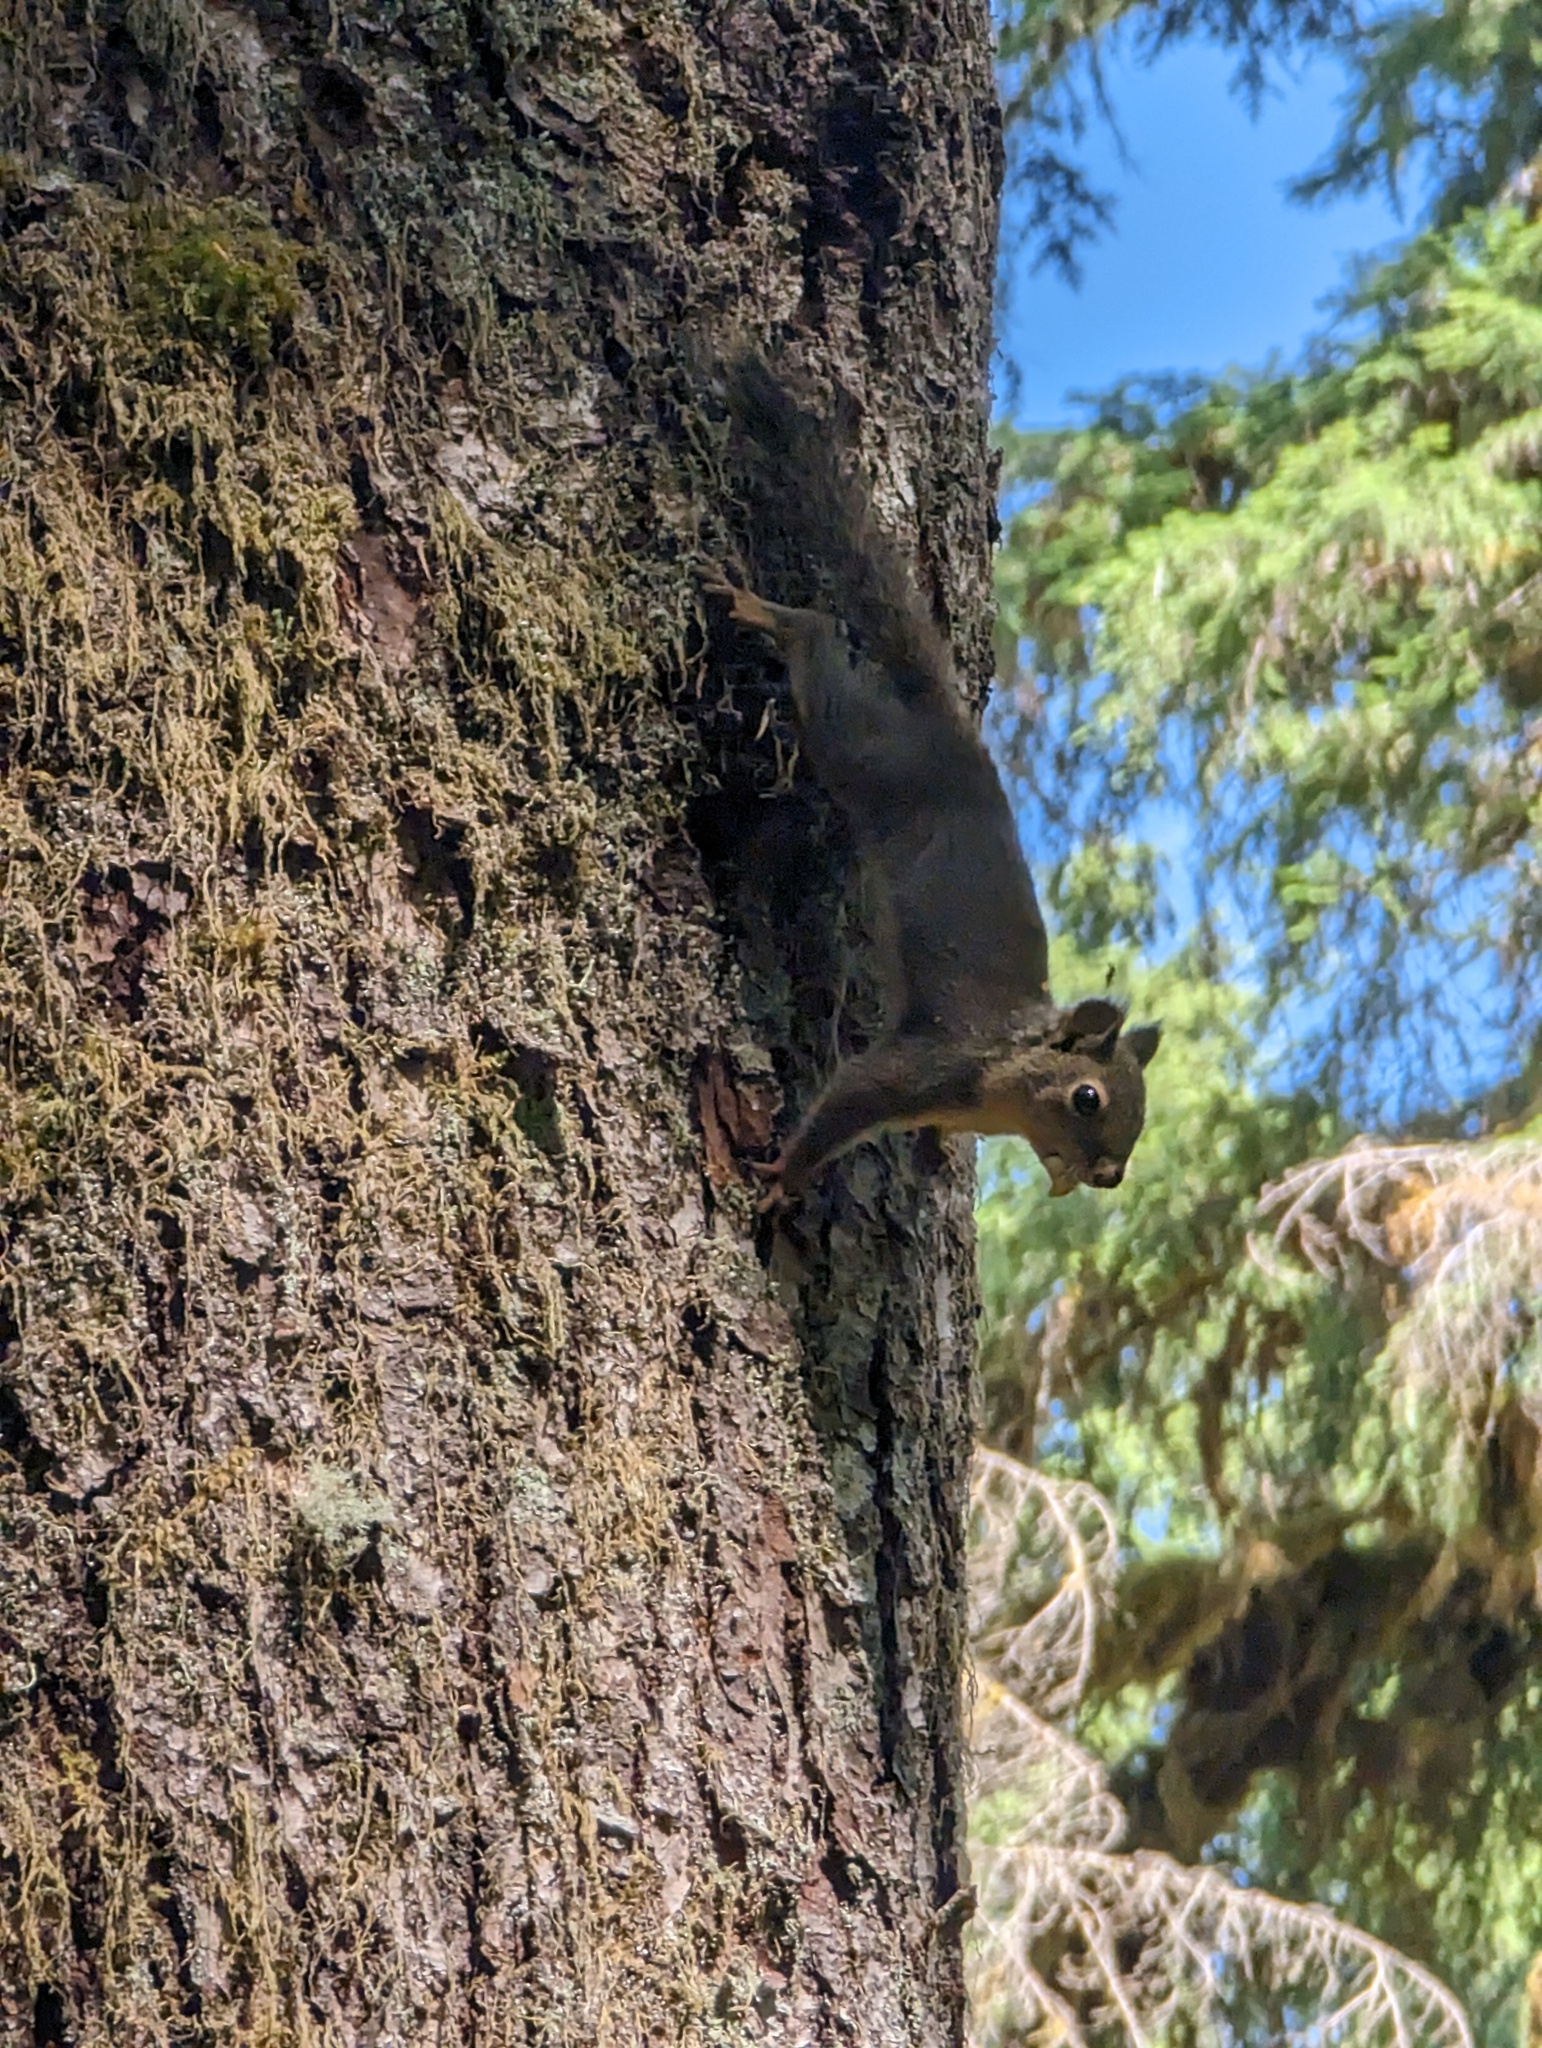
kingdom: Animalia
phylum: Chordata
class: Mammalia
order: Rodentia
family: Sciuridae
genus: Tamiasciurus
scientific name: Tamiasciurus douglasii
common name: Douglas's squirrel
